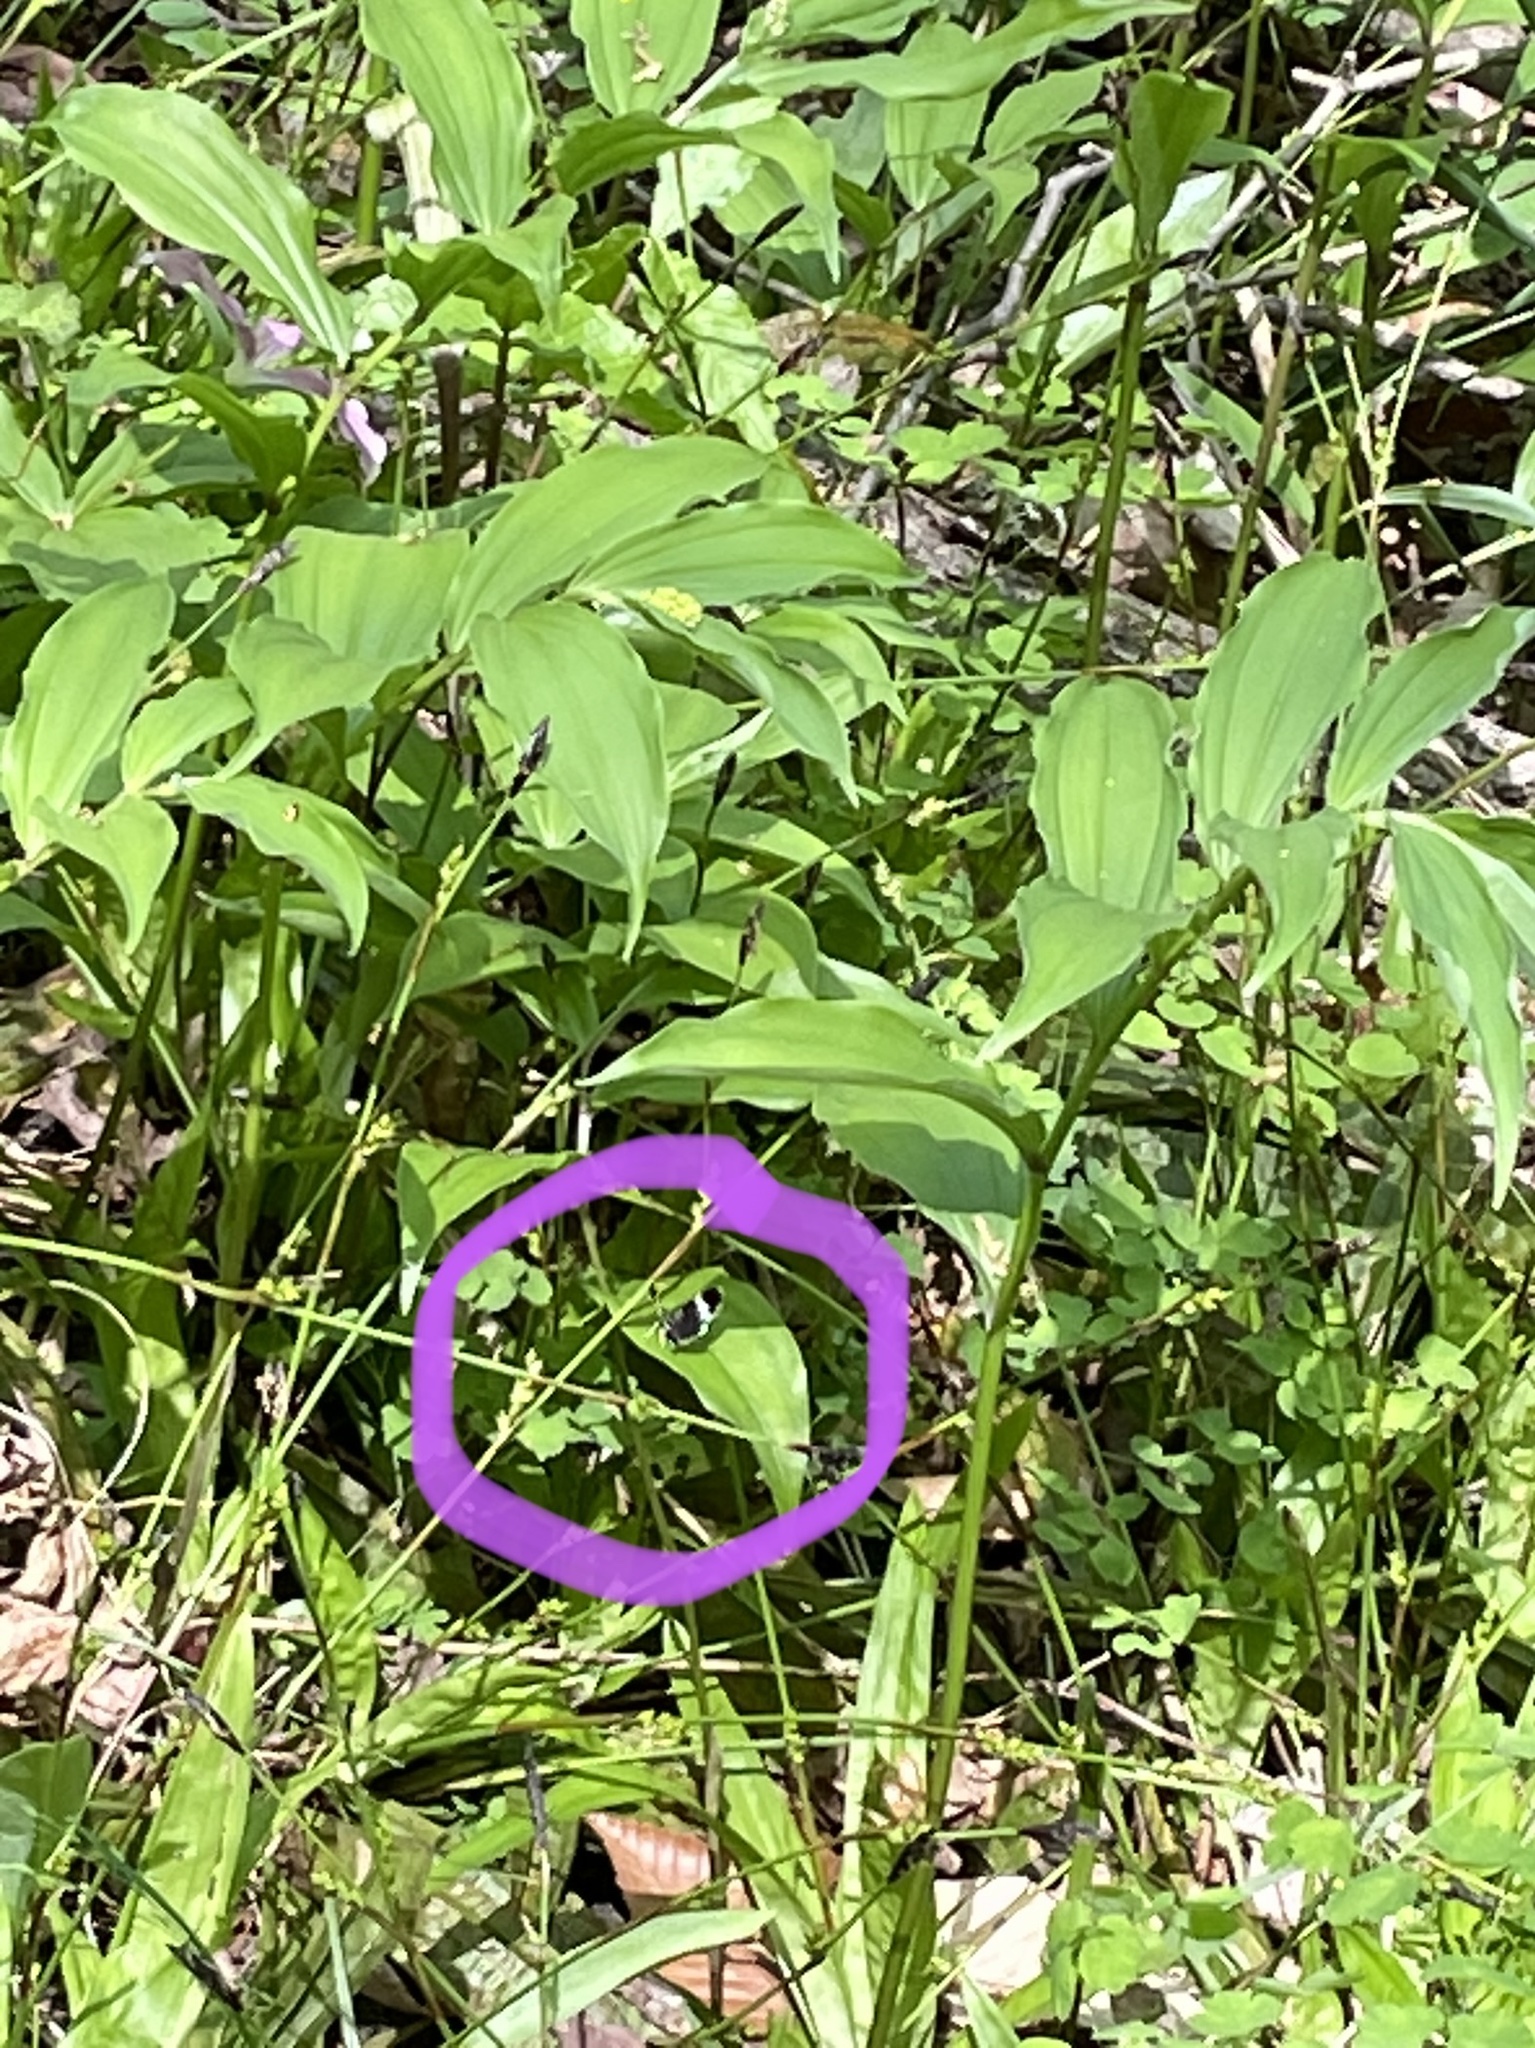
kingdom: Animalia
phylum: Arthropoda
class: Insecta
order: Lepidoptera
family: Geometridae
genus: Trichodezia
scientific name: Trichodezia albovittata
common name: White striped black
